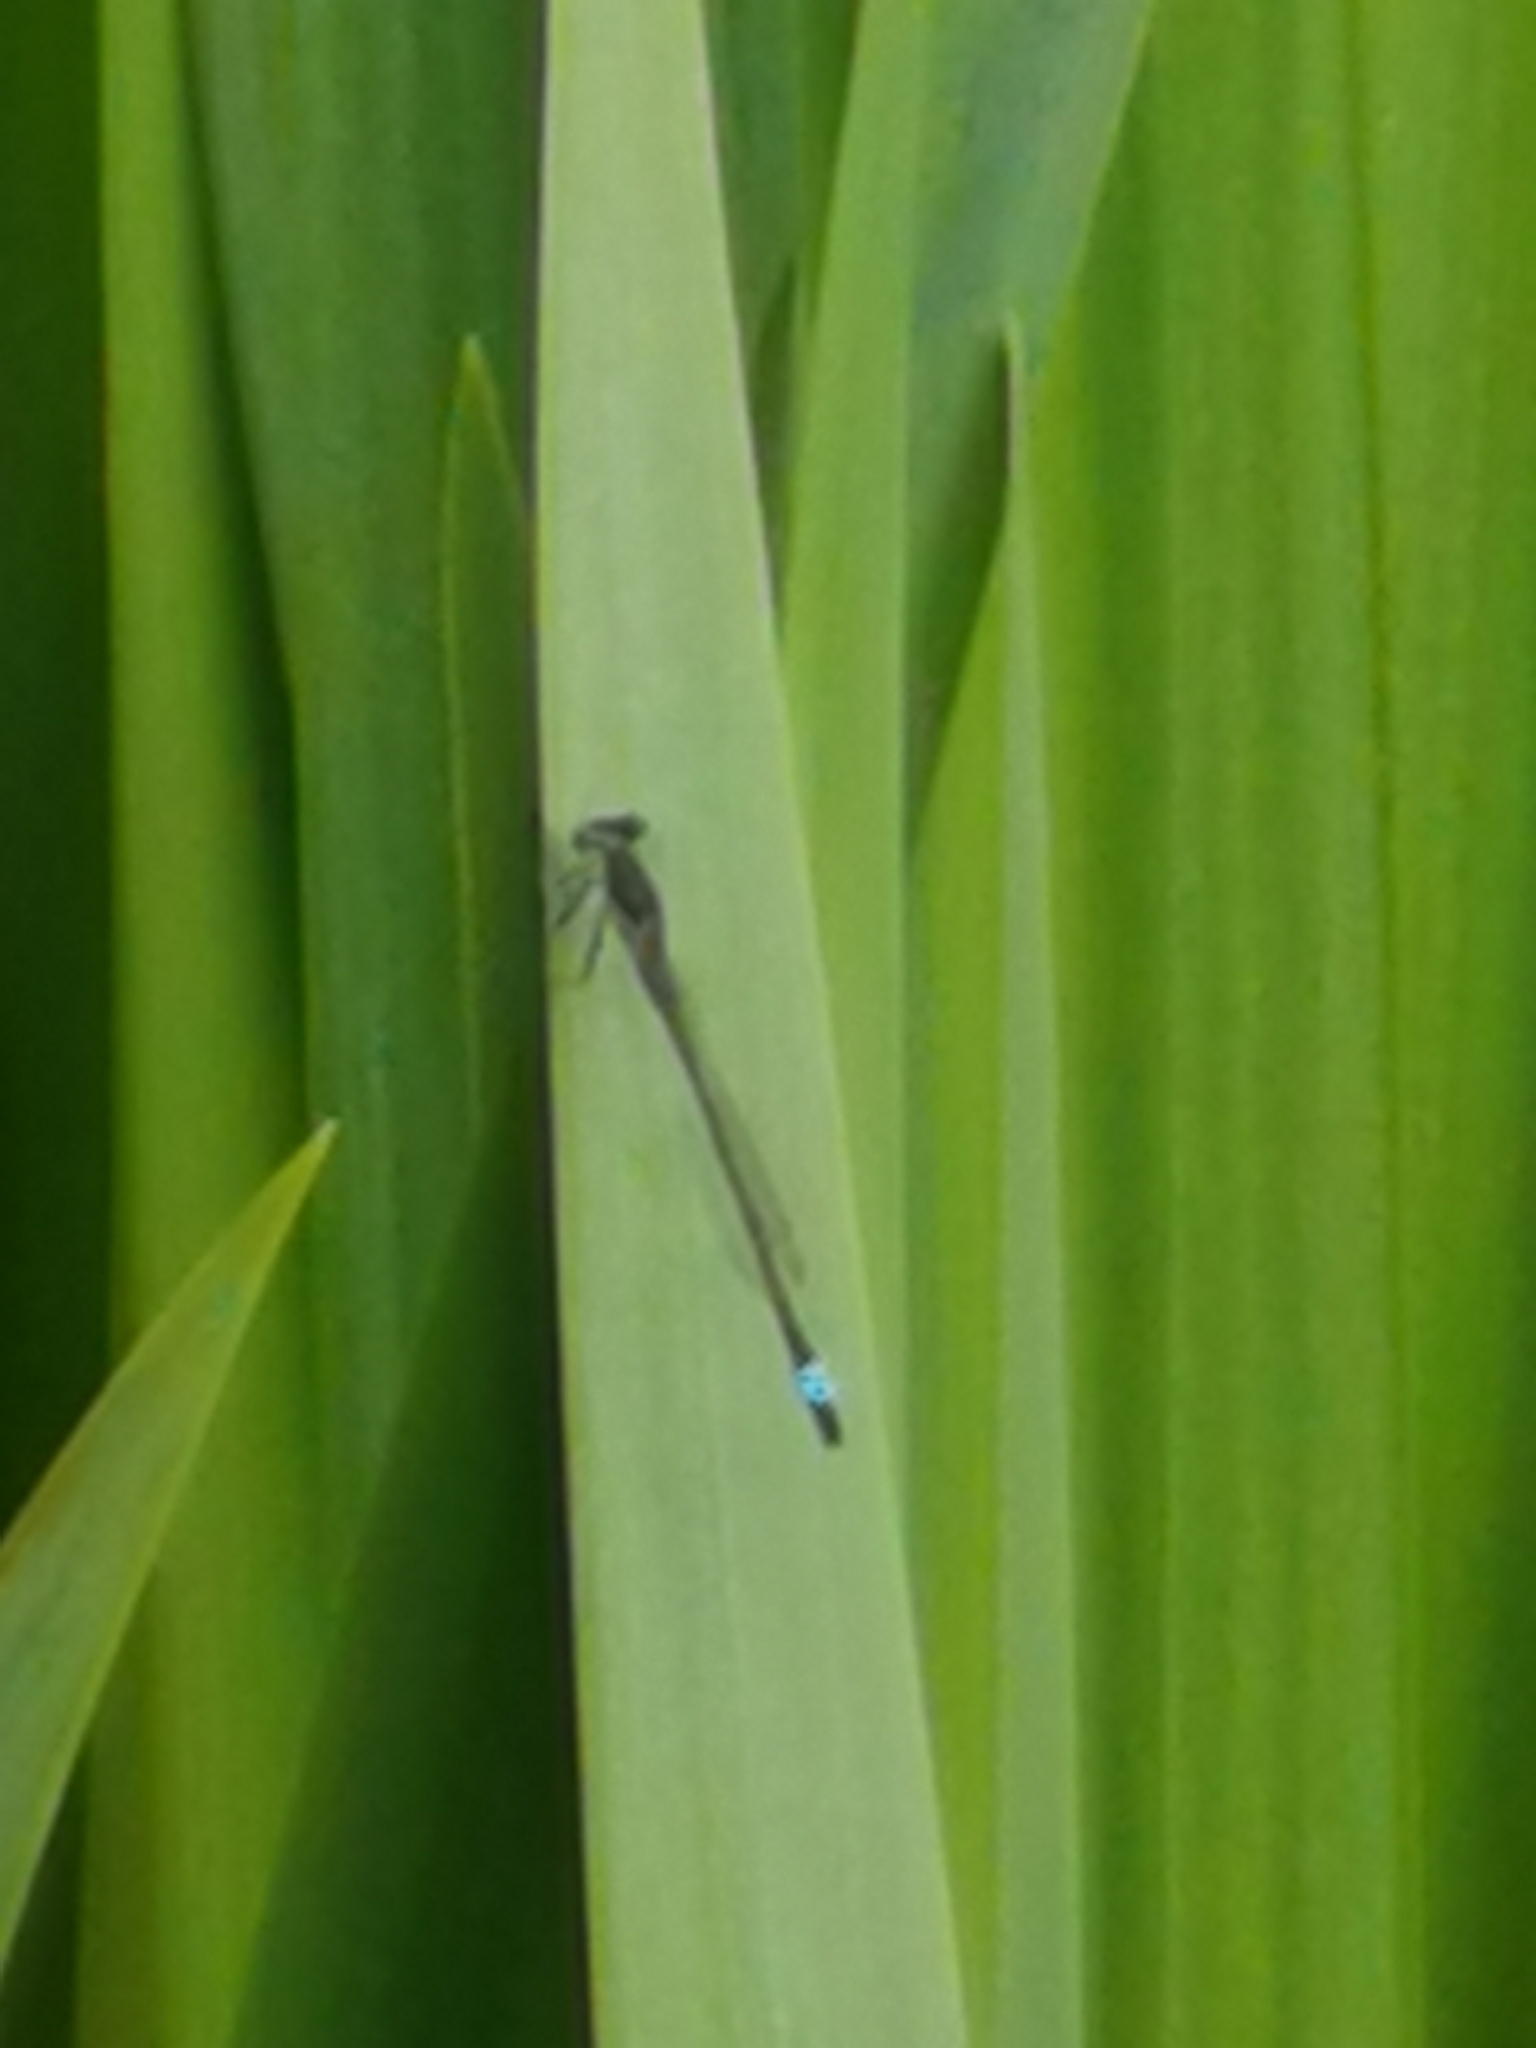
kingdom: Animalia
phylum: Arthropoda
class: Insecta
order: Odonata
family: Coenagrionidae
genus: Ischnura
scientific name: Ischnura elegans
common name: Blue-tailed damselfly
